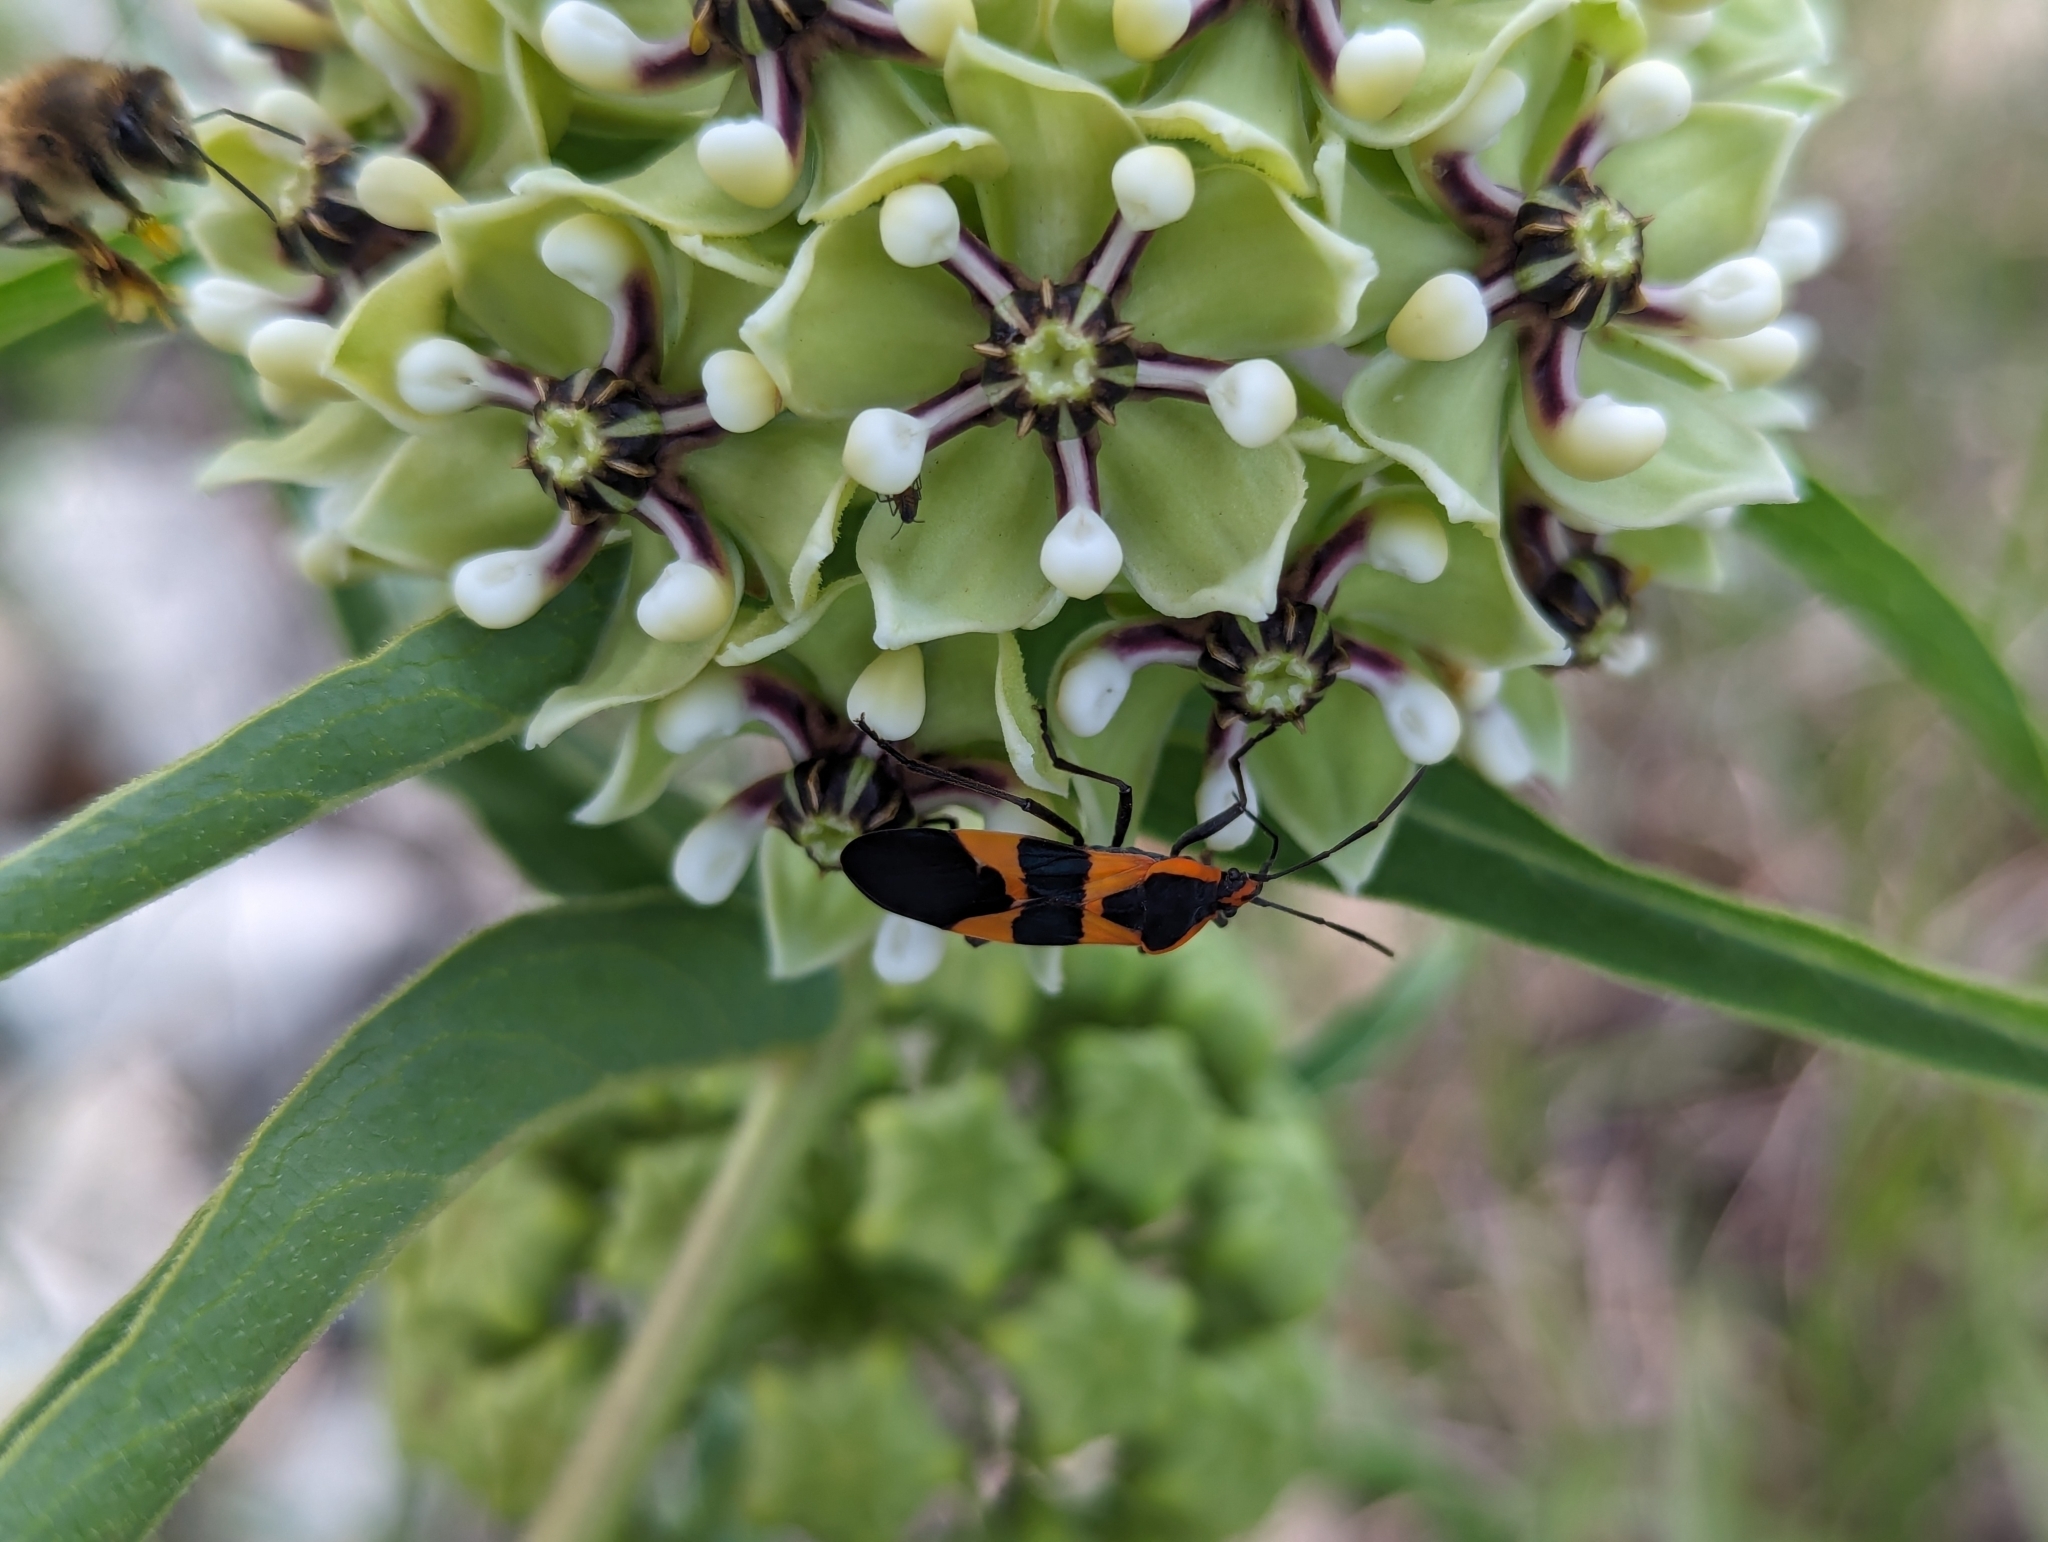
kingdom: Animalia
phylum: Arthropoda
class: Insecta
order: Hemiptera
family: Lygaeidae
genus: Oncopeltus
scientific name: Oncopeltus fasciatus
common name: Large milkweed bug
